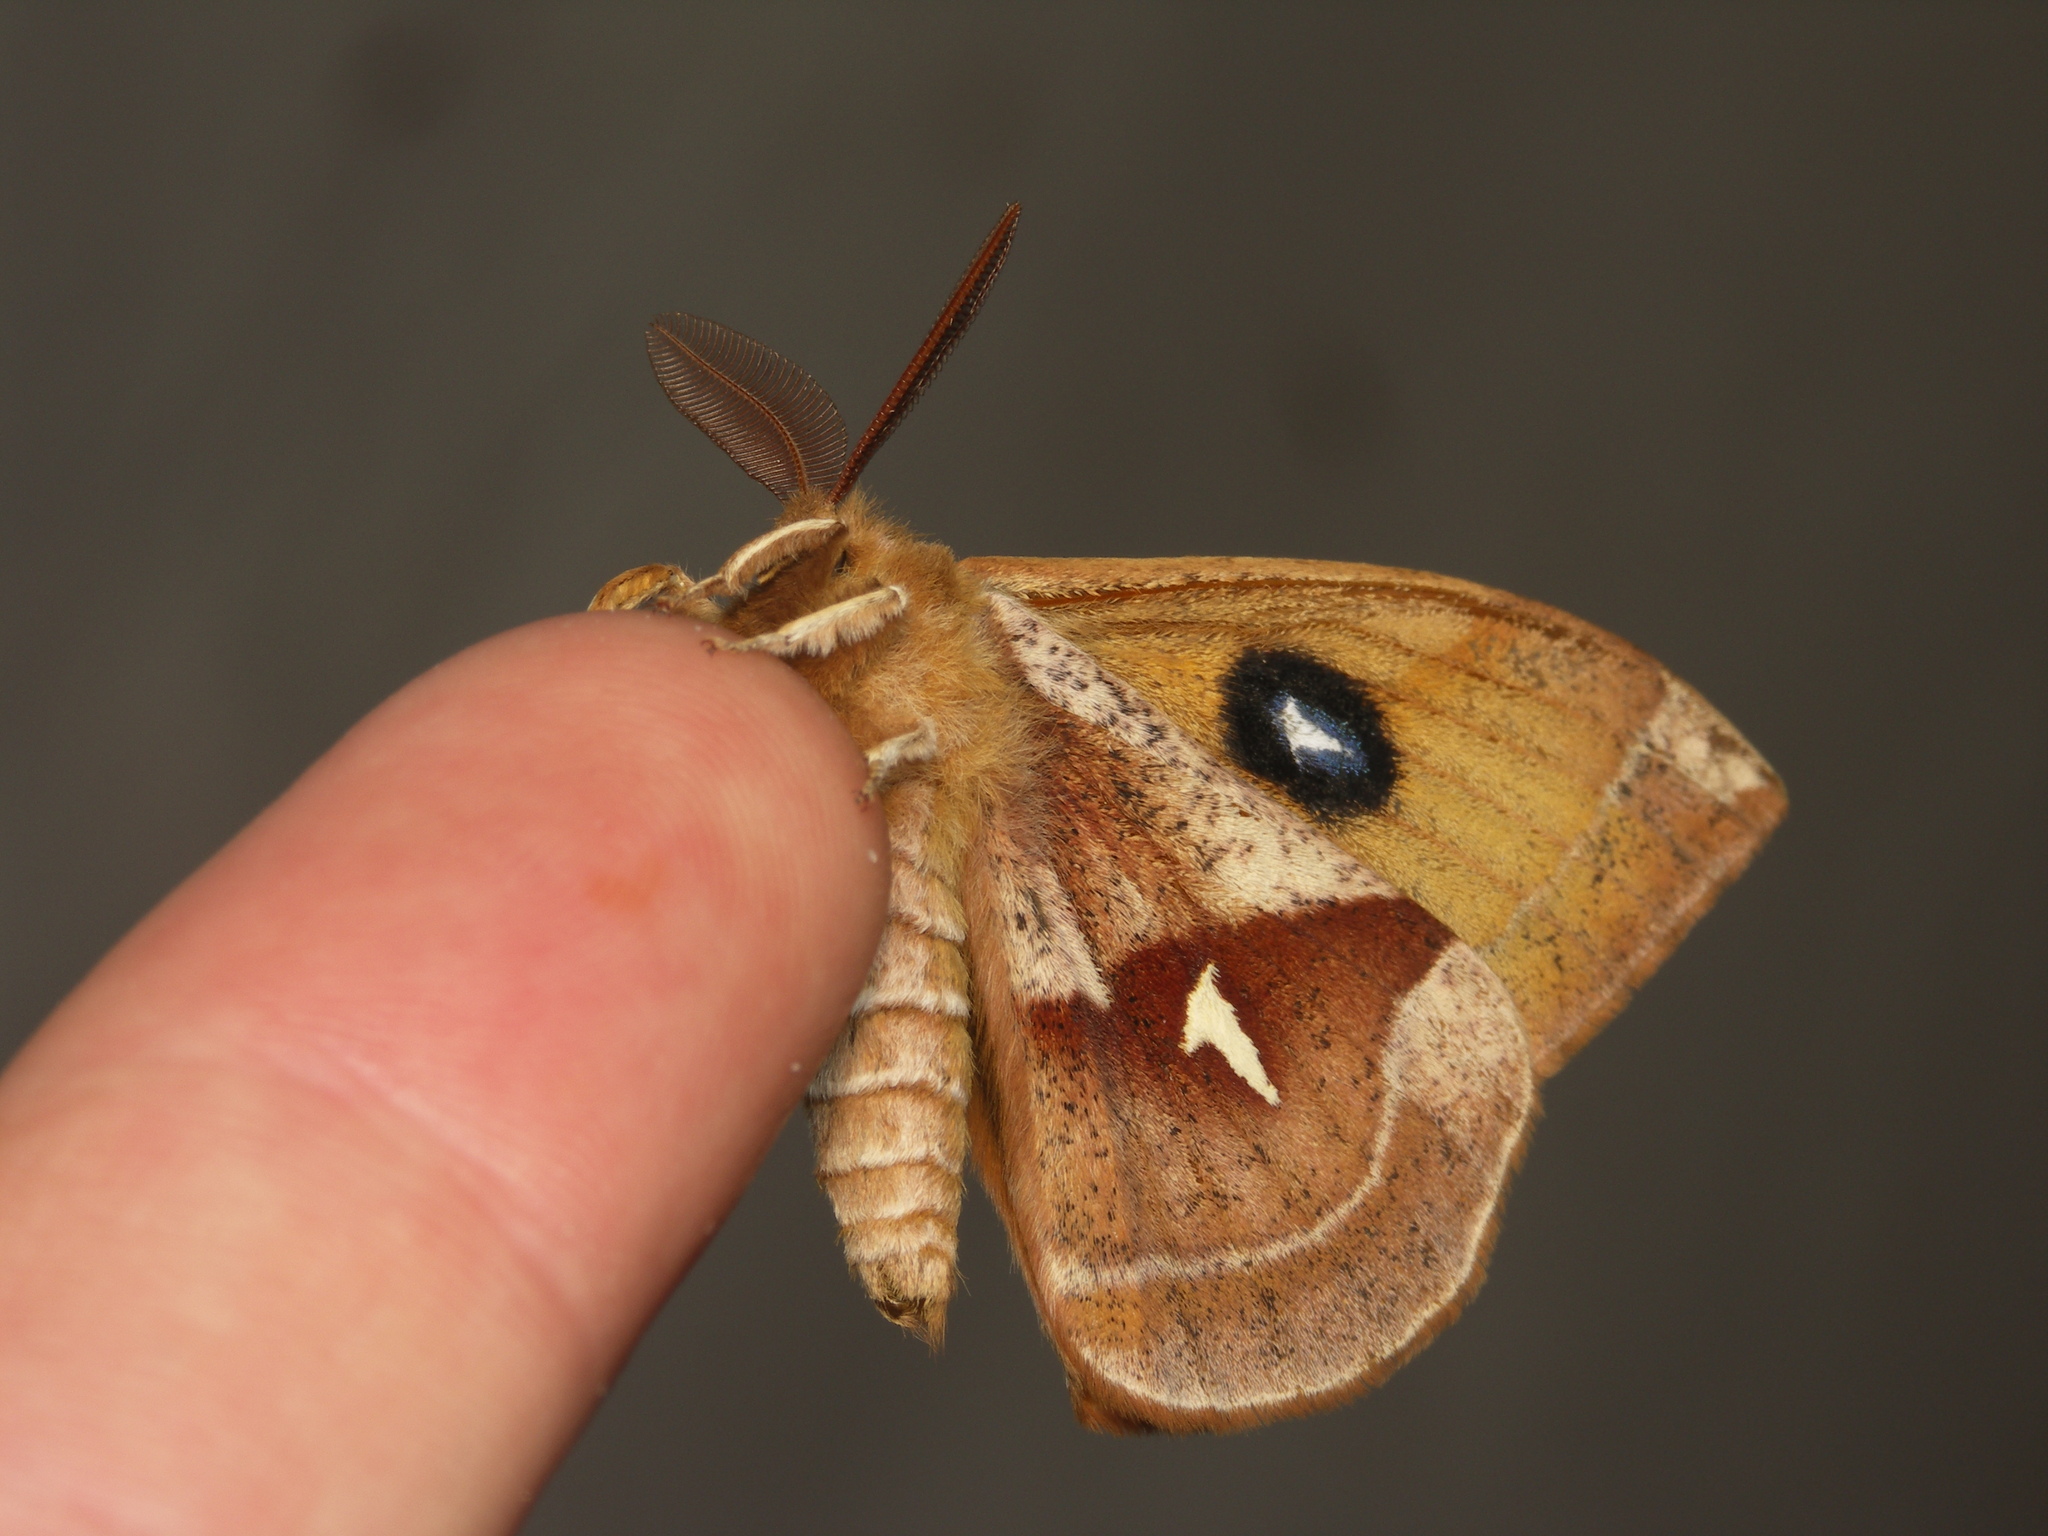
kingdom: Animalia
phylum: Arthropoda
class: Insecta
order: Lepidoptera
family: Saturniidae
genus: Aglia
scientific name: Aglia tau
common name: Tau emperor
